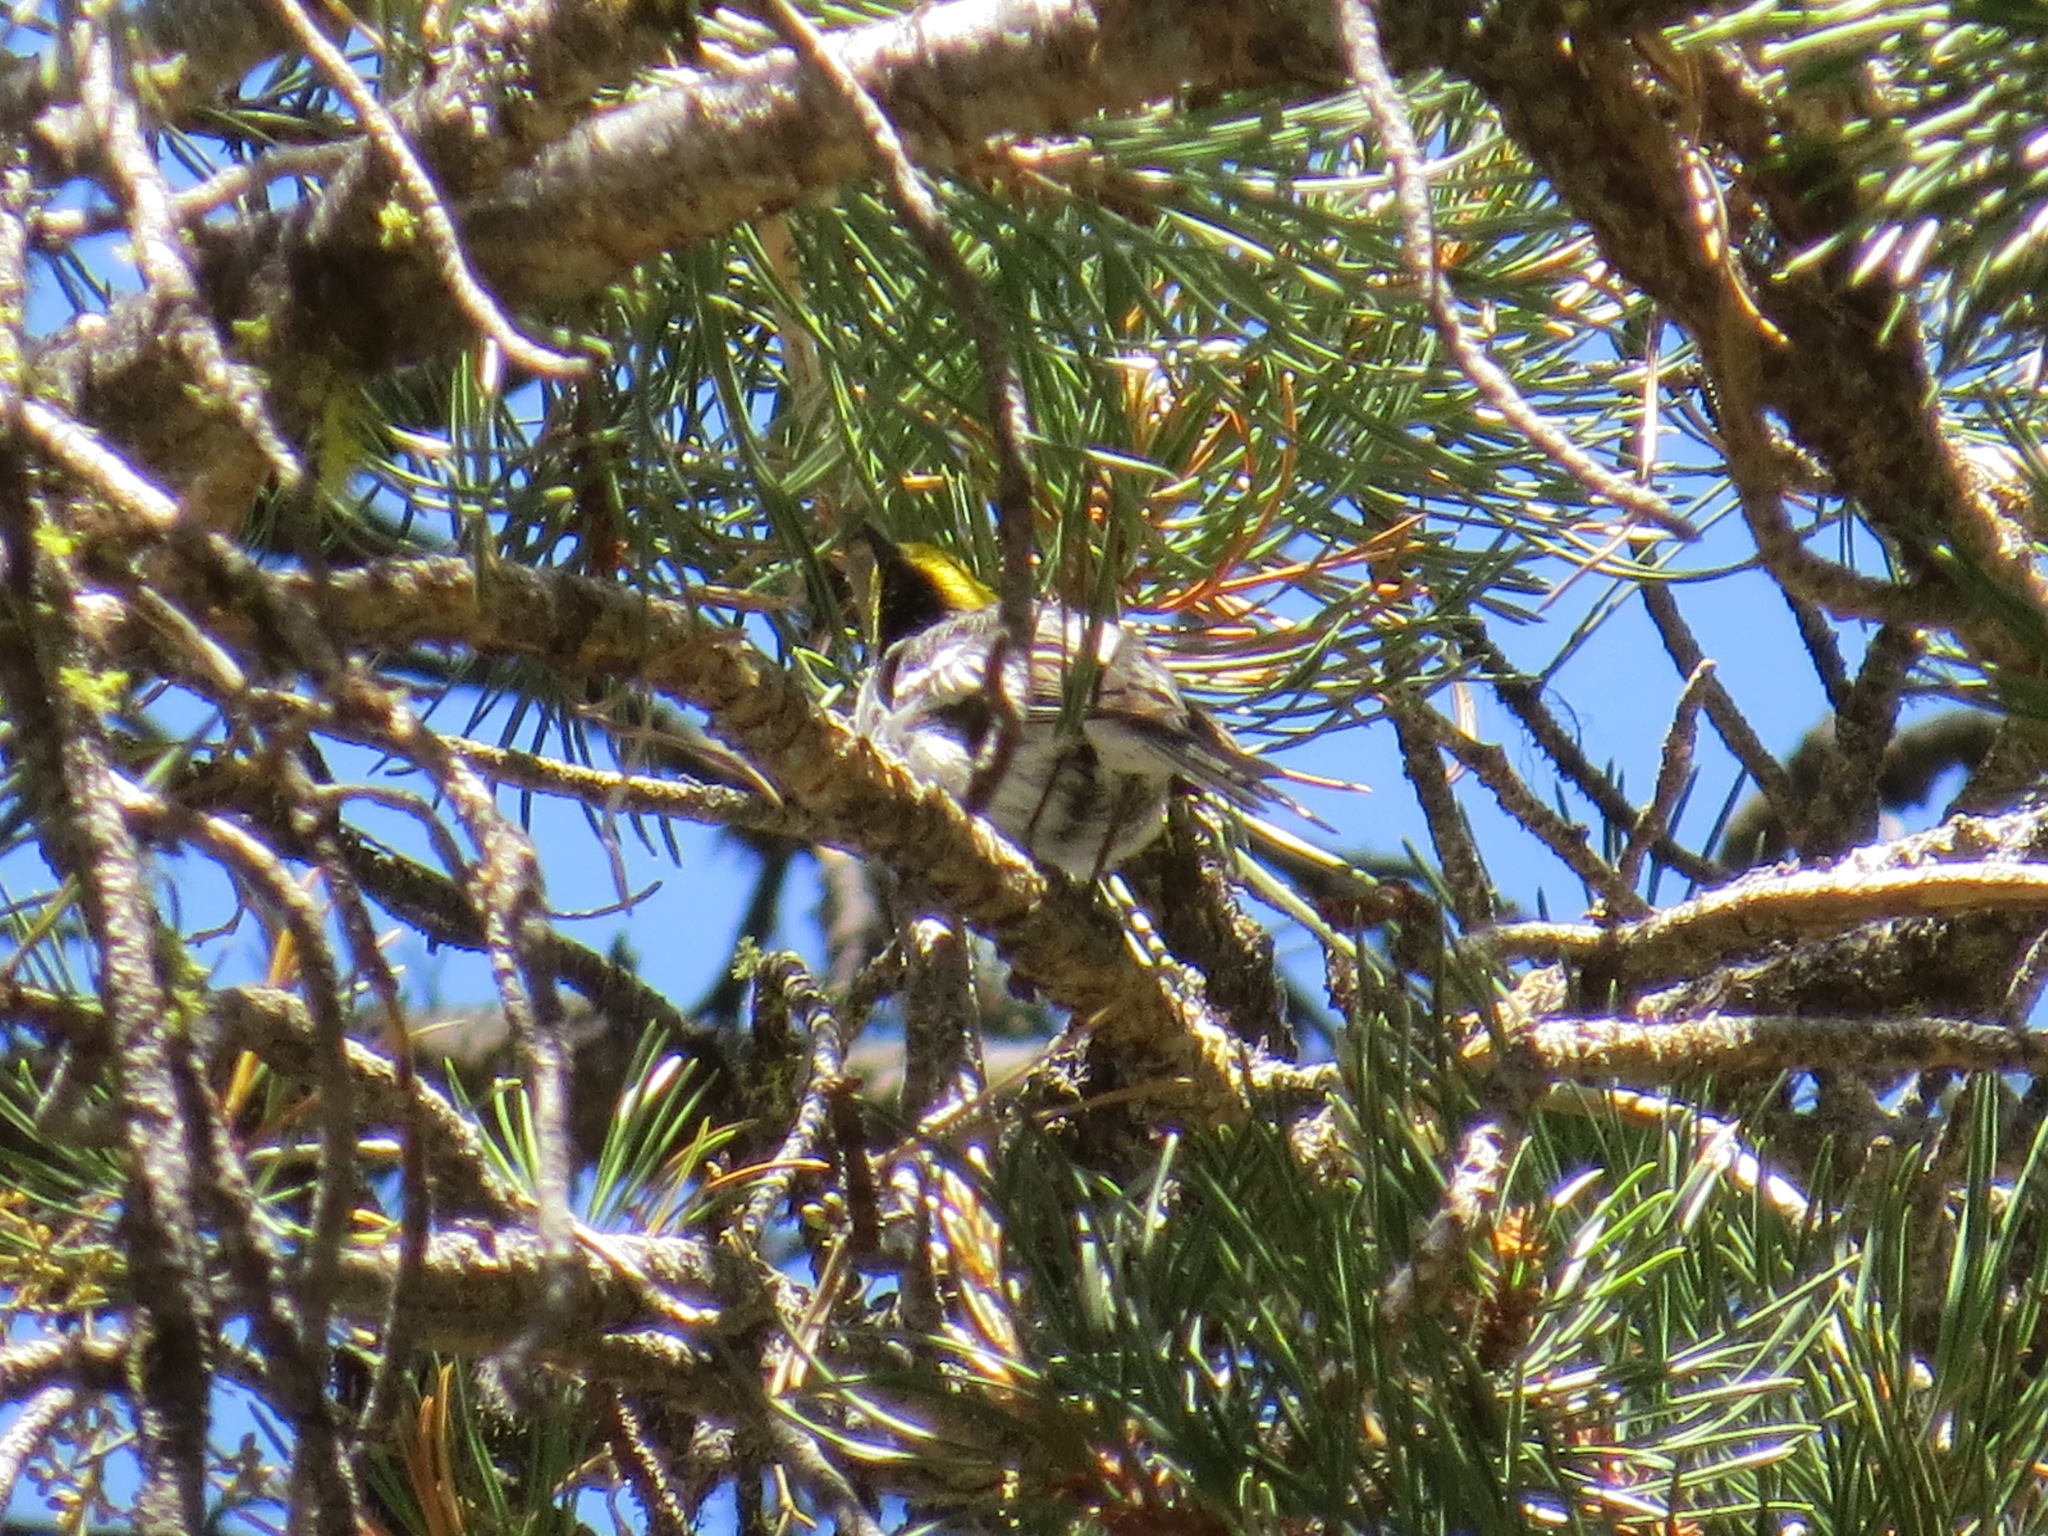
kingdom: Animalia
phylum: Chordata
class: Aves
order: Passeriformes
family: Parulidae
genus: Setophaga
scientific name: Setophaga occidentalis
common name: Hermit warbler
